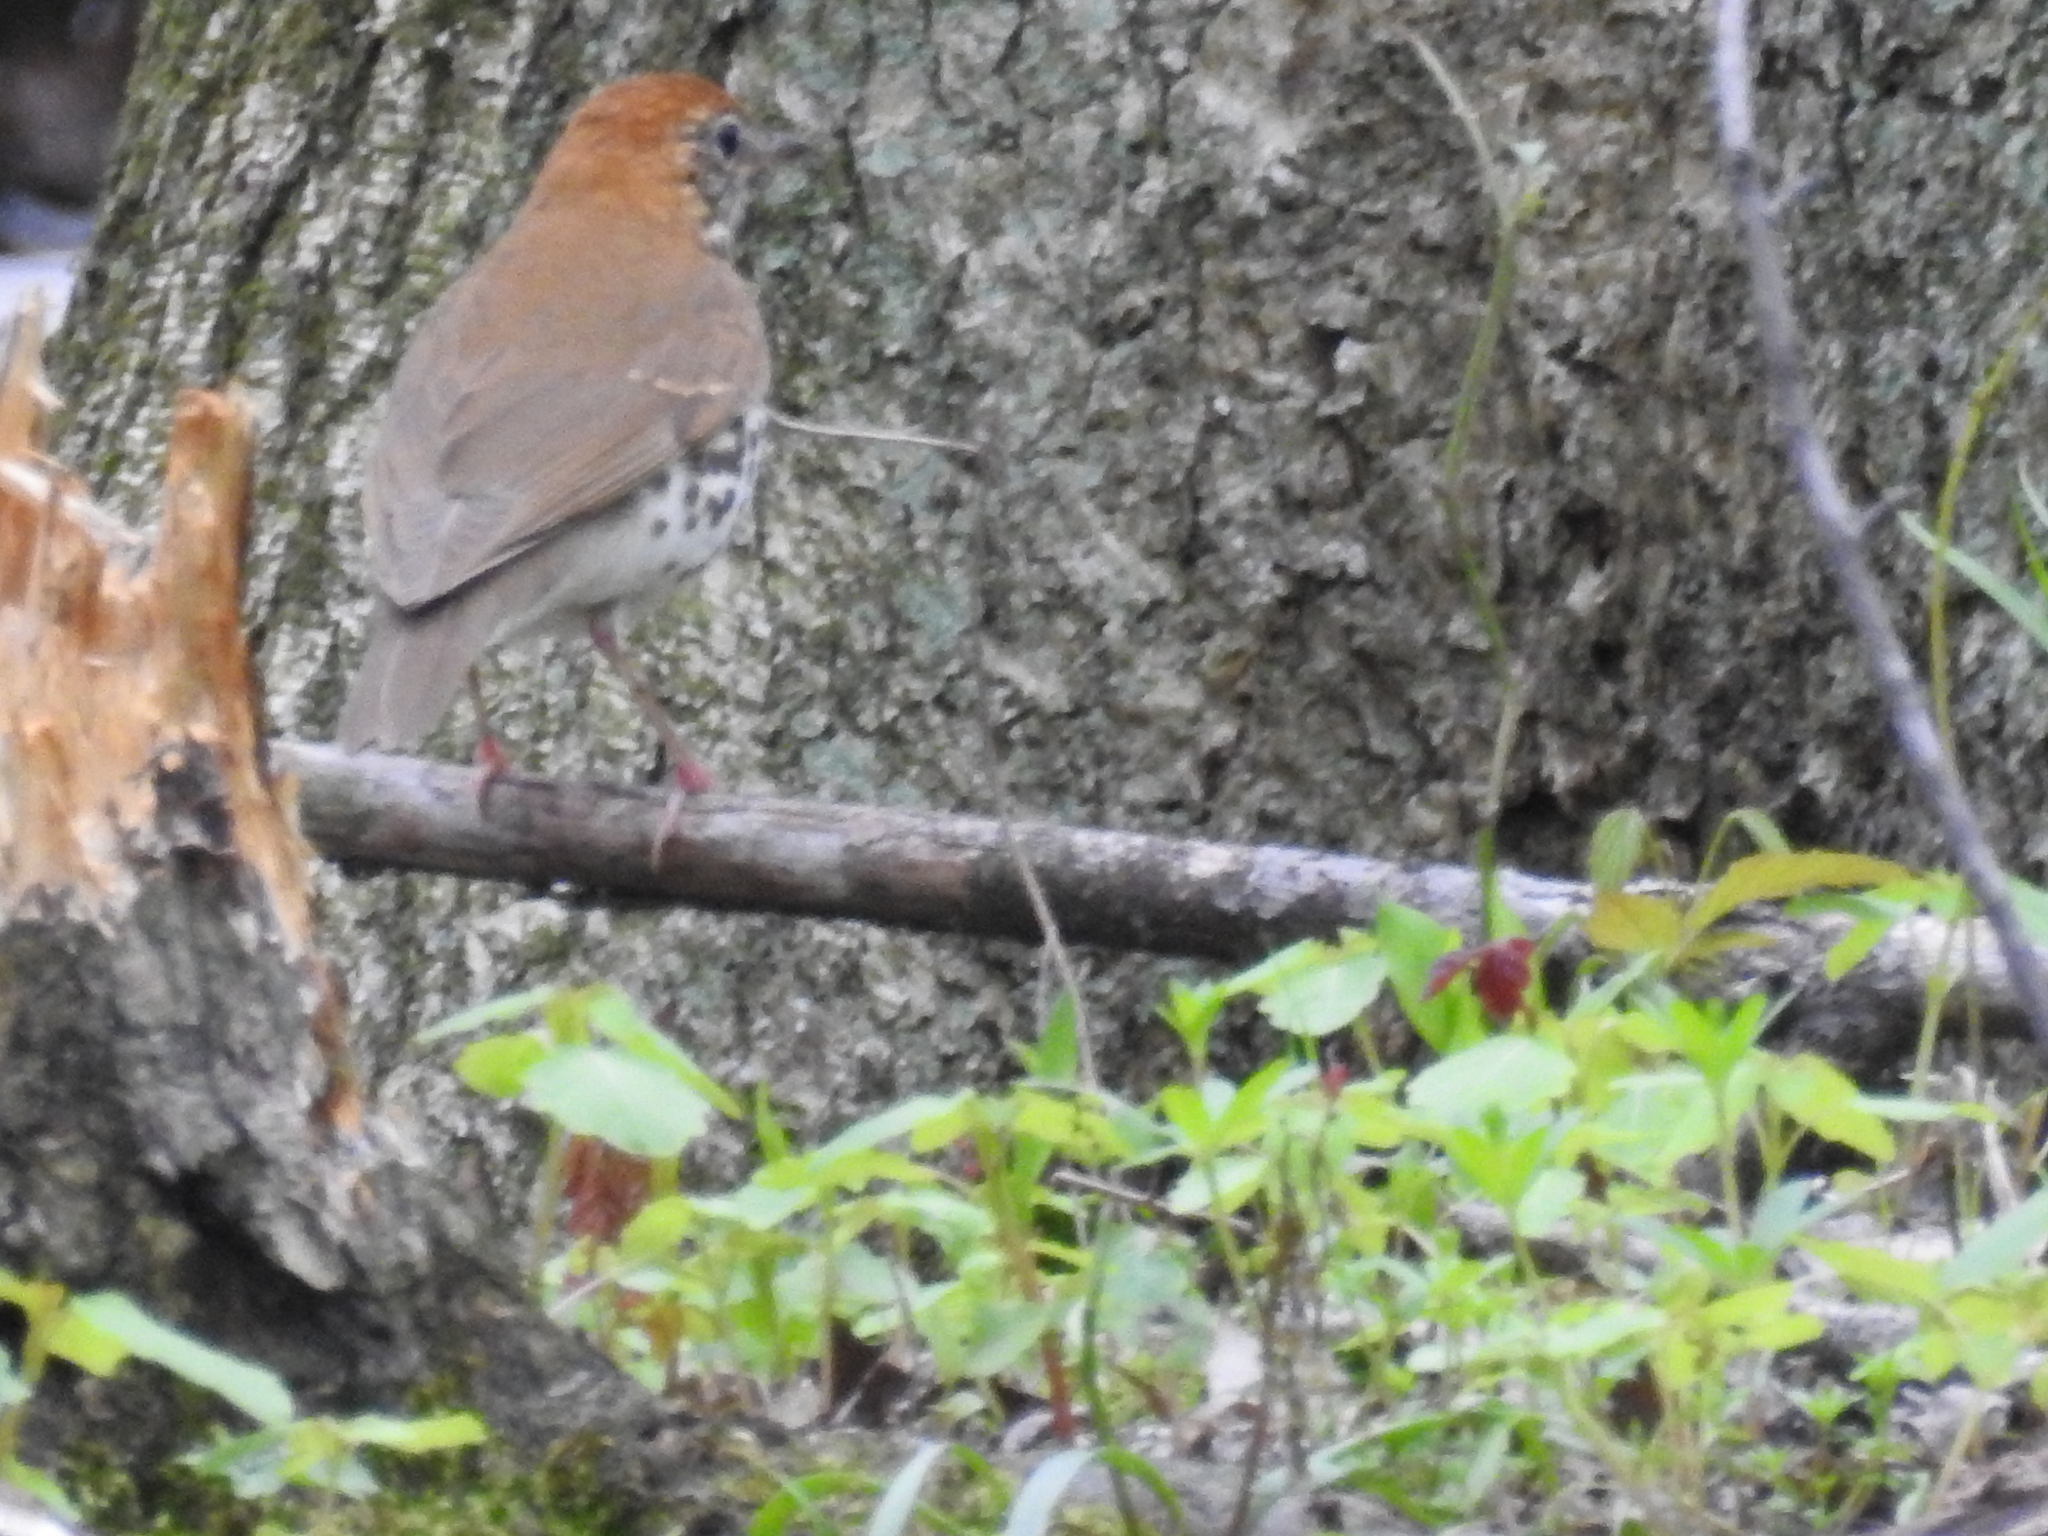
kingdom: Animalia
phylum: Chordata
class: Aves
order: Passeriformes
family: Turdidae
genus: Hylocichla
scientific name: Hylocichla mustelina
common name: Wood thrush
